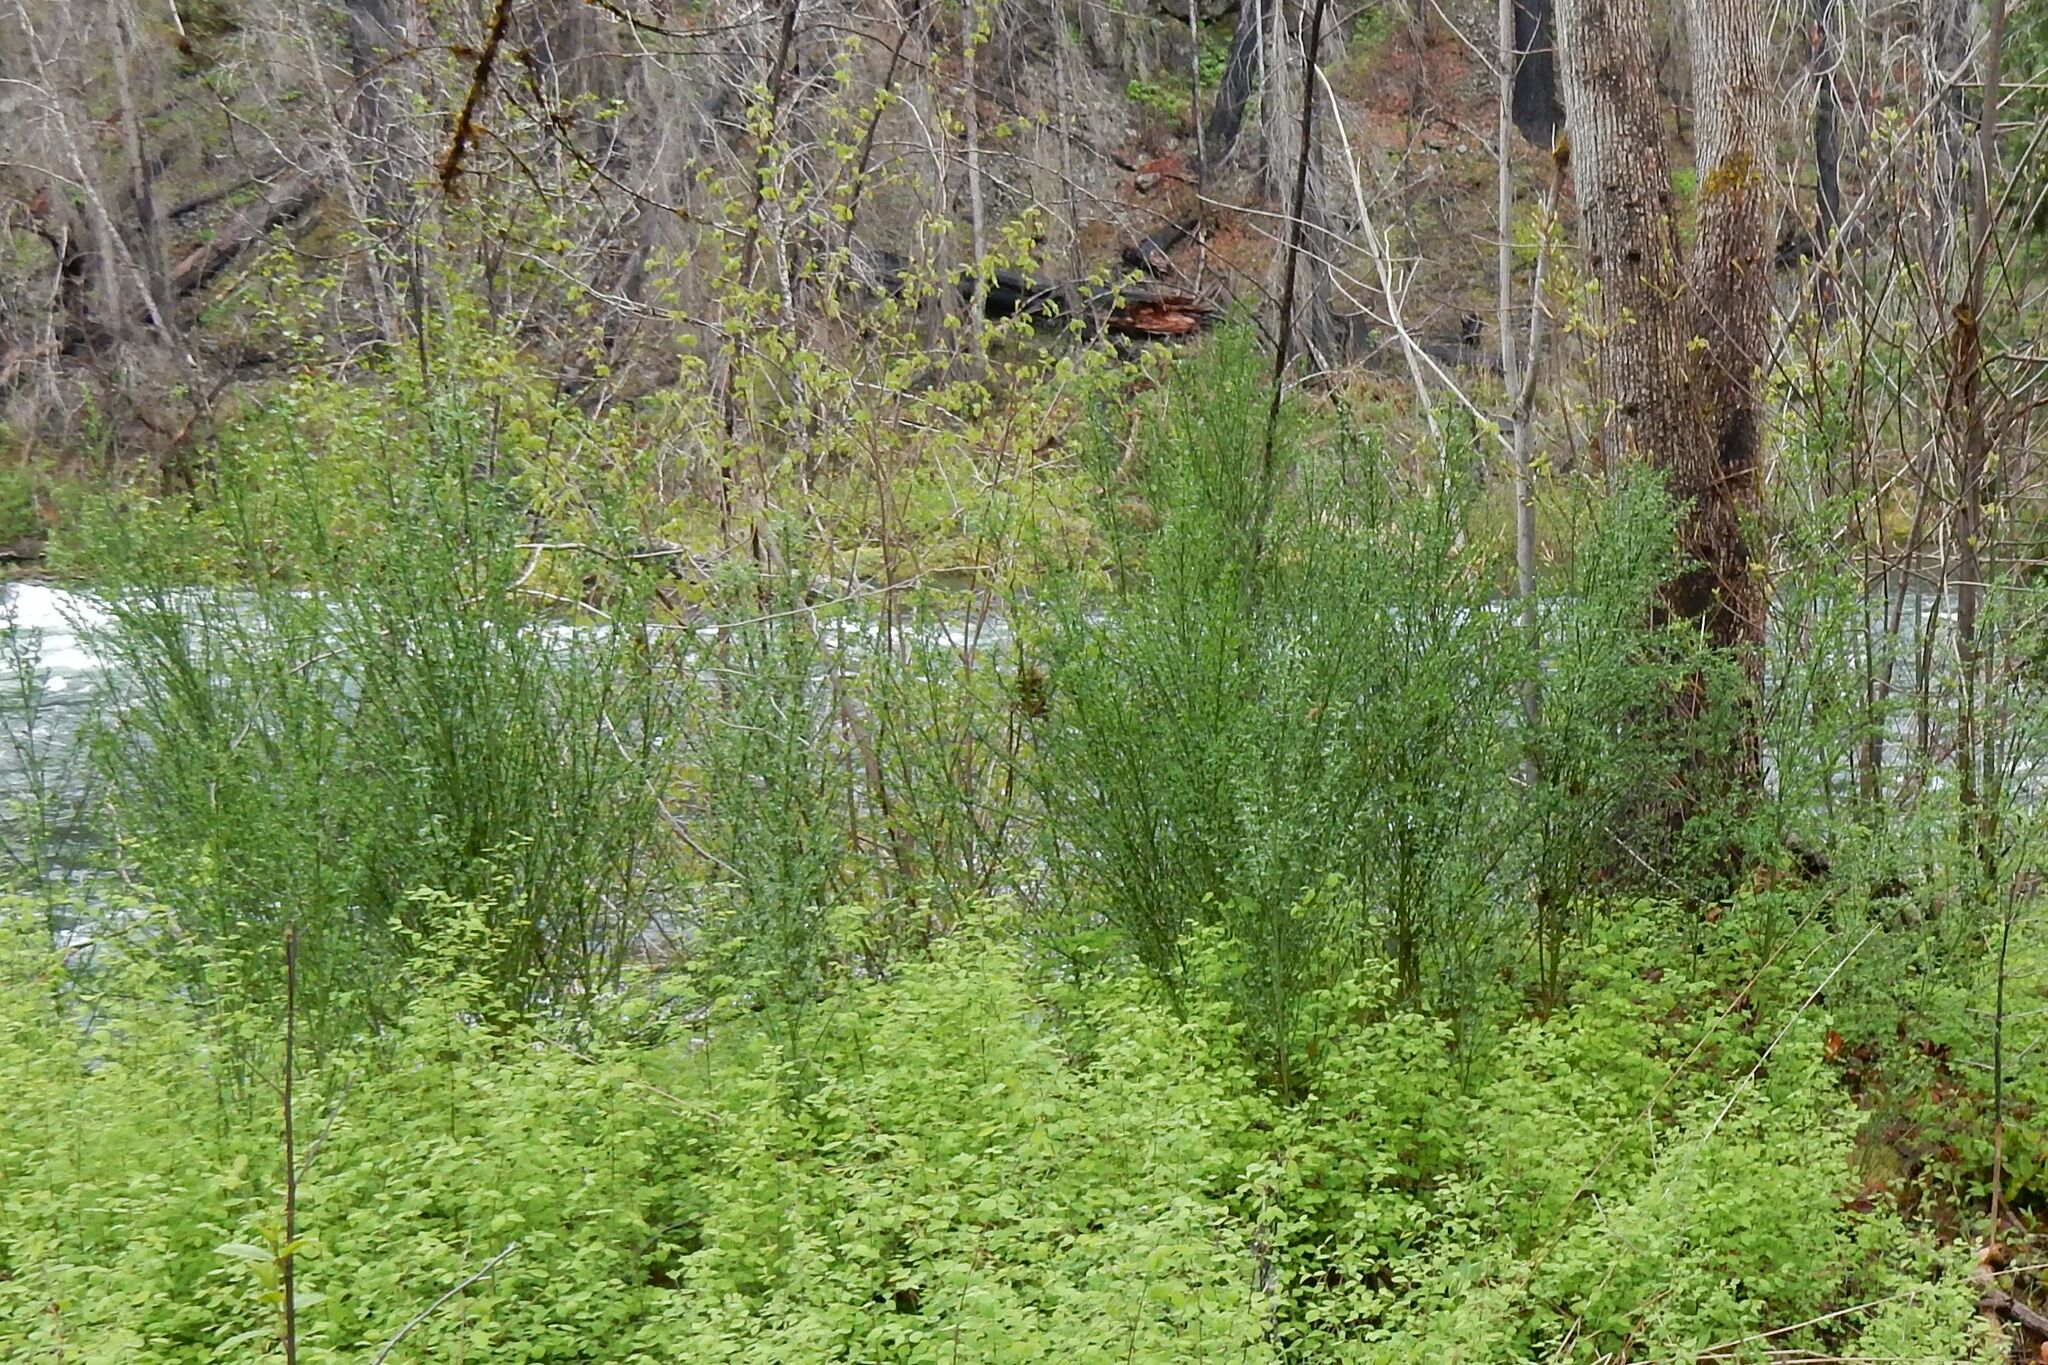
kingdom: Plantae
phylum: Tracheophyta
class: Magnoliopsida
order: Fabales
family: Fabaceae
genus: Cytisus
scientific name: Cytisus scoparius
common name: Scotch broom
